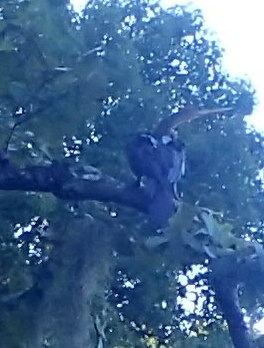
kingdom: Animalia
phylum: Chordata
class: Aves
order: Suliformes
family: Anhingidae
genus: Anhinga
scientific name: Anhinga anhinga
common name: Anhinga
